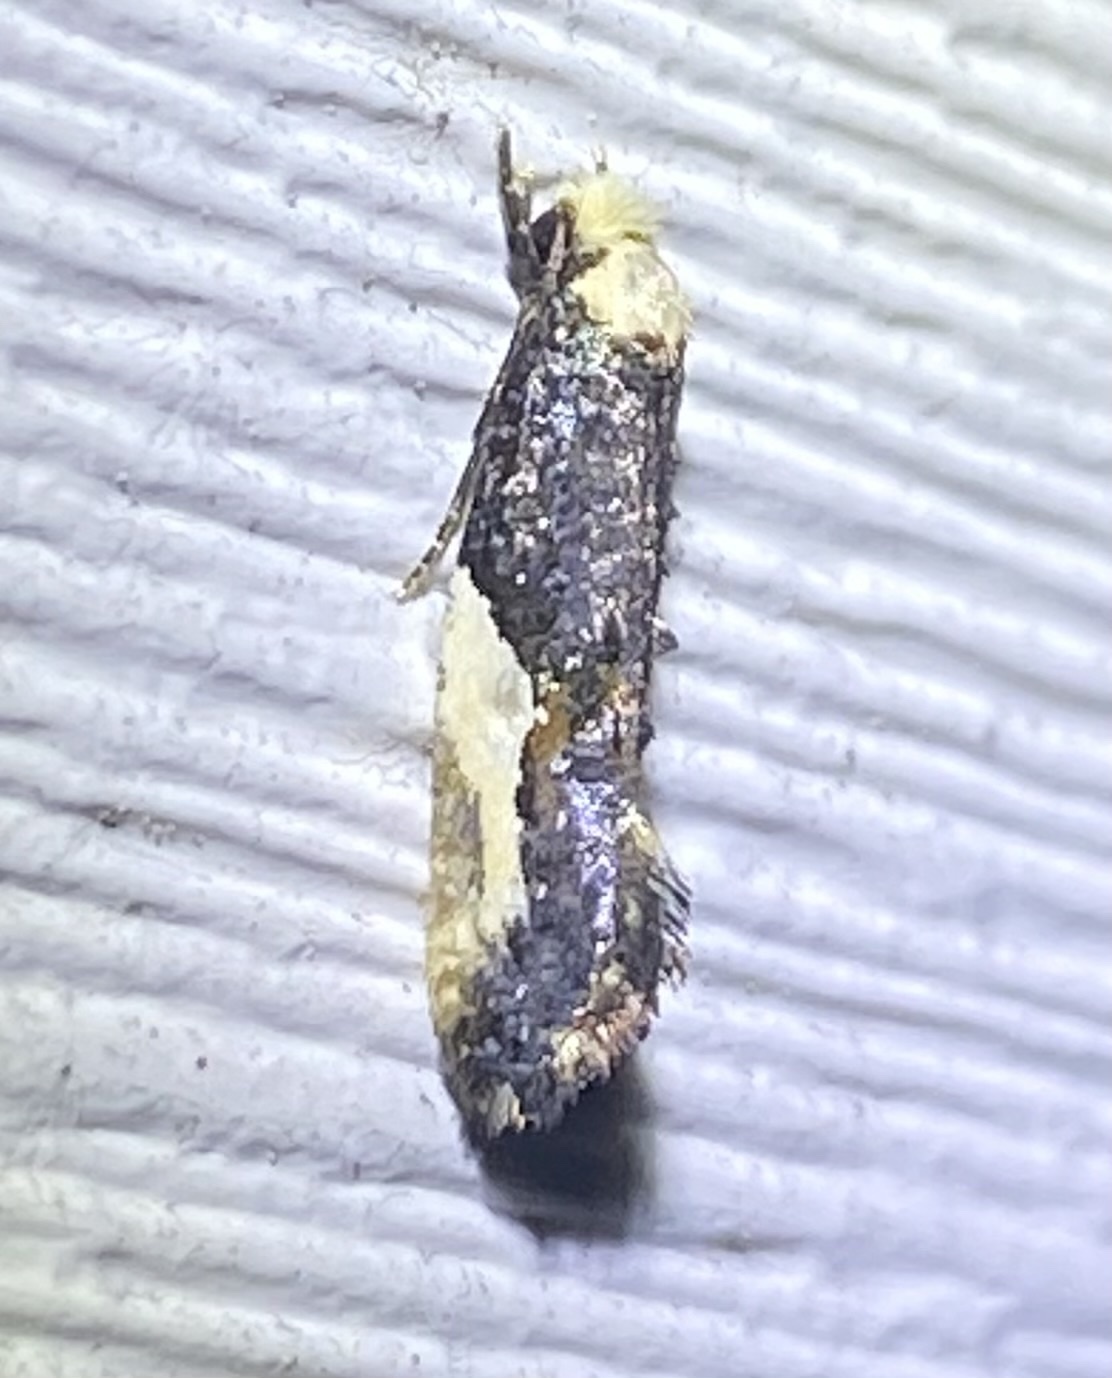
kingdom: Animalia
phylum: Arthropoda
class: Insecta
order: Lepidoptera
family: Tineidae
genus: Monopis
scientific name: Monopis longella
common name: Pavlovski's monopis moth
